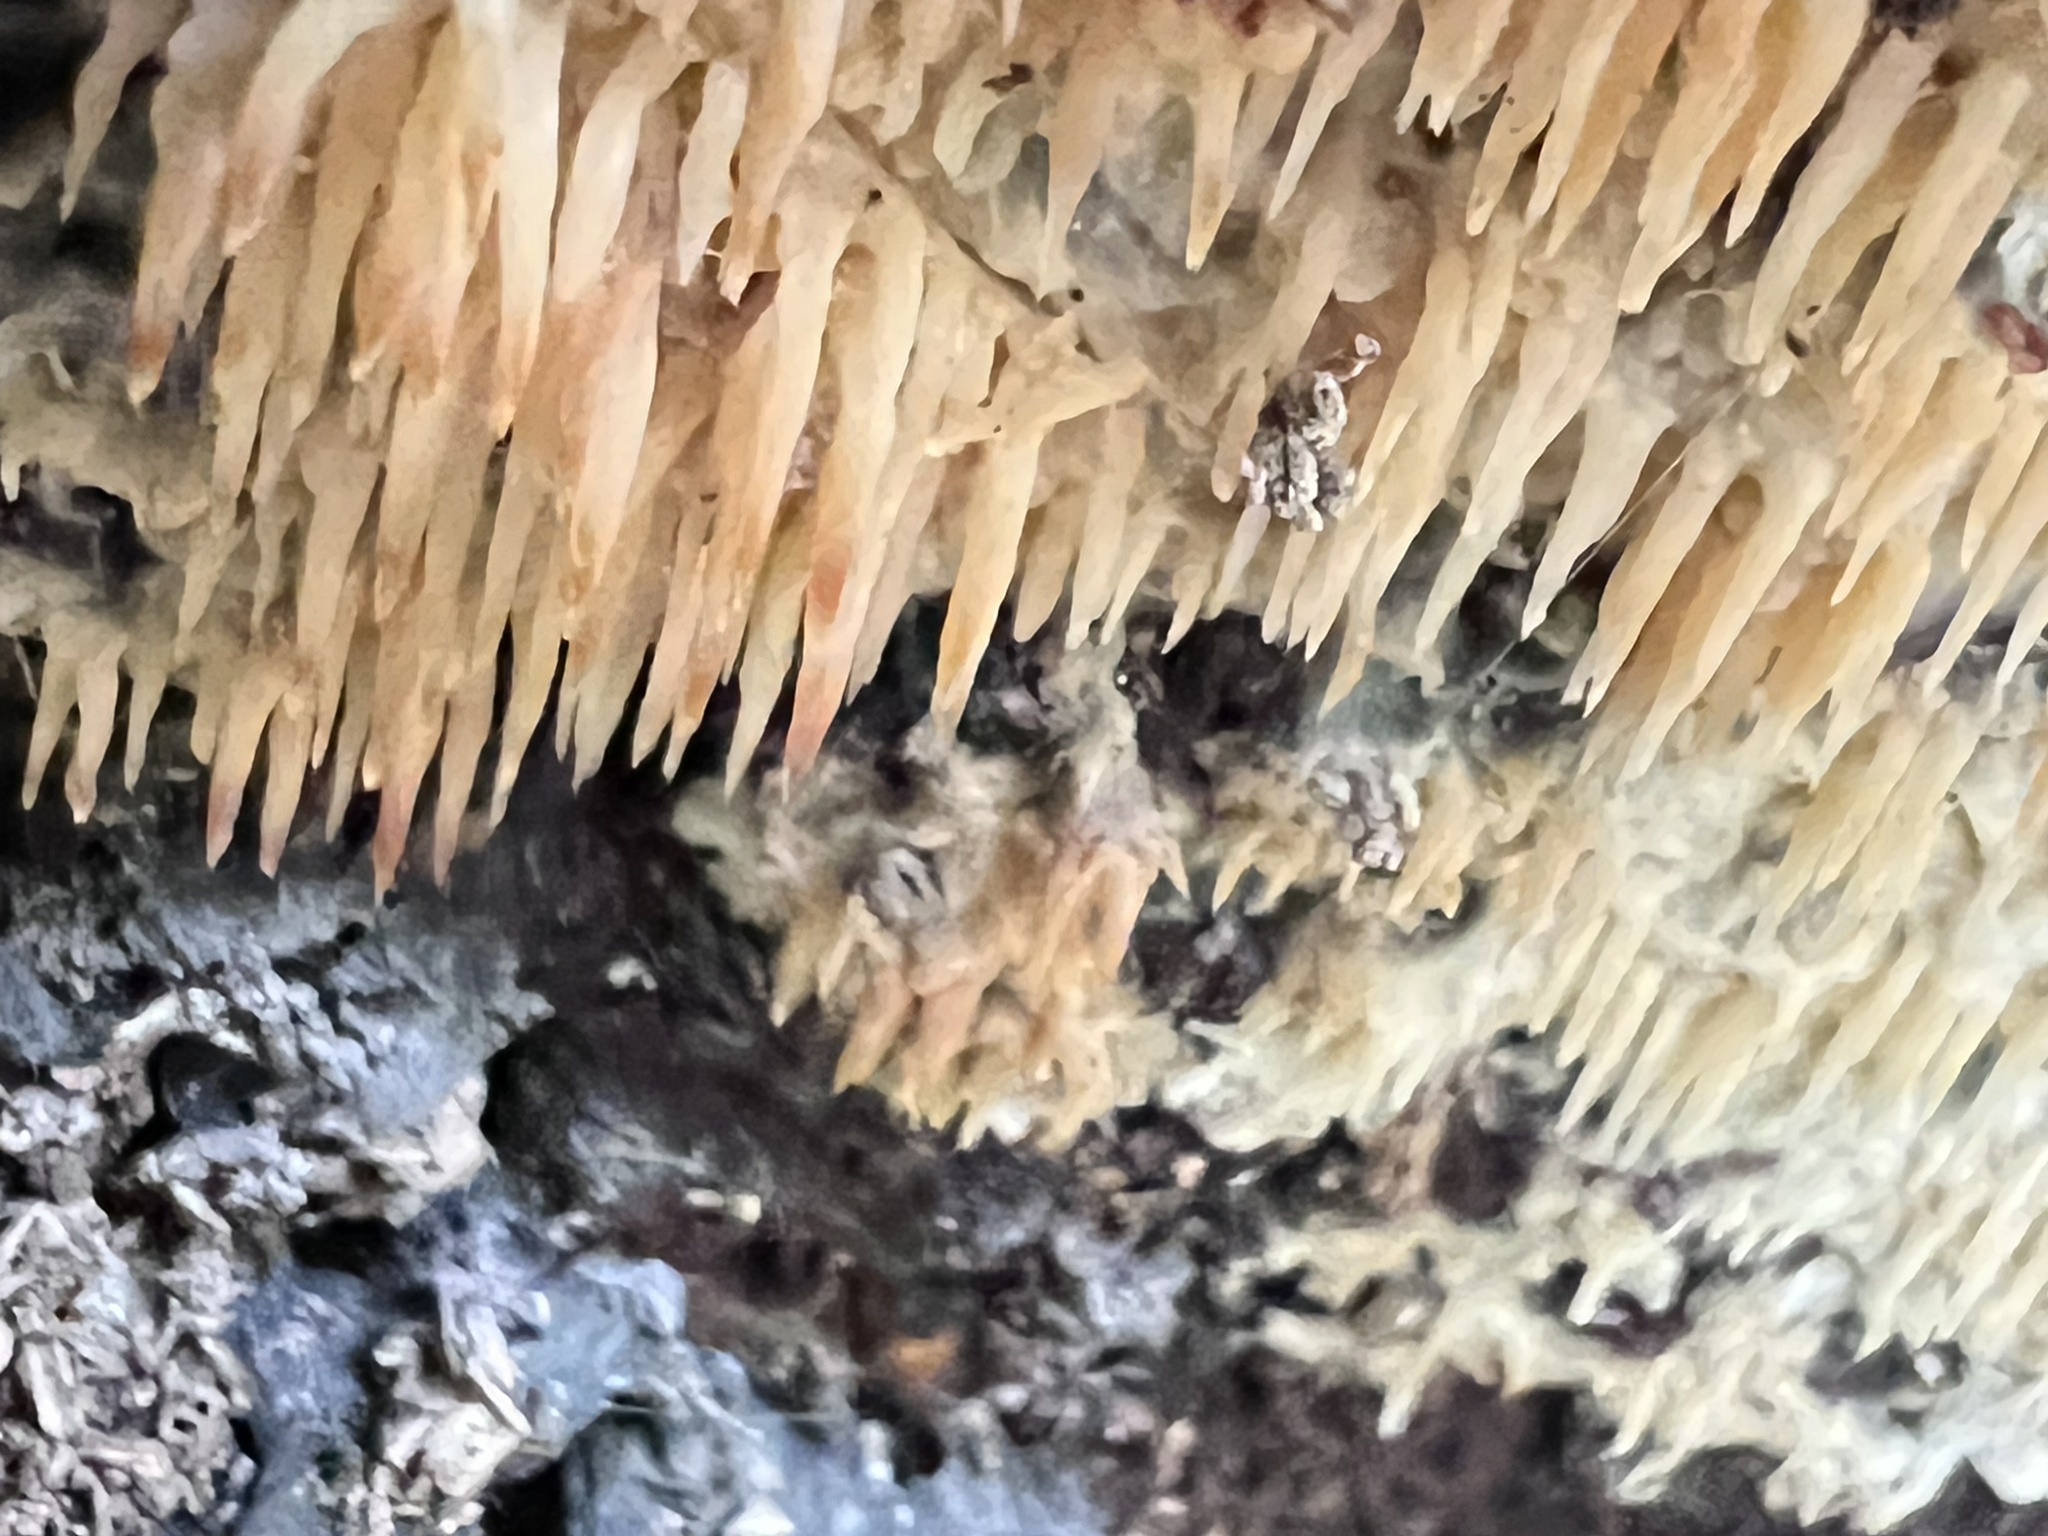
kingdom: Fungi
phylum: Basidiomycota
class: Agaricomycetes
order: Agaricales
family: Radulomycetaceae
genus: Radulomyces
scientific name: Radulomyces copelandii
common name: Asian beauty
